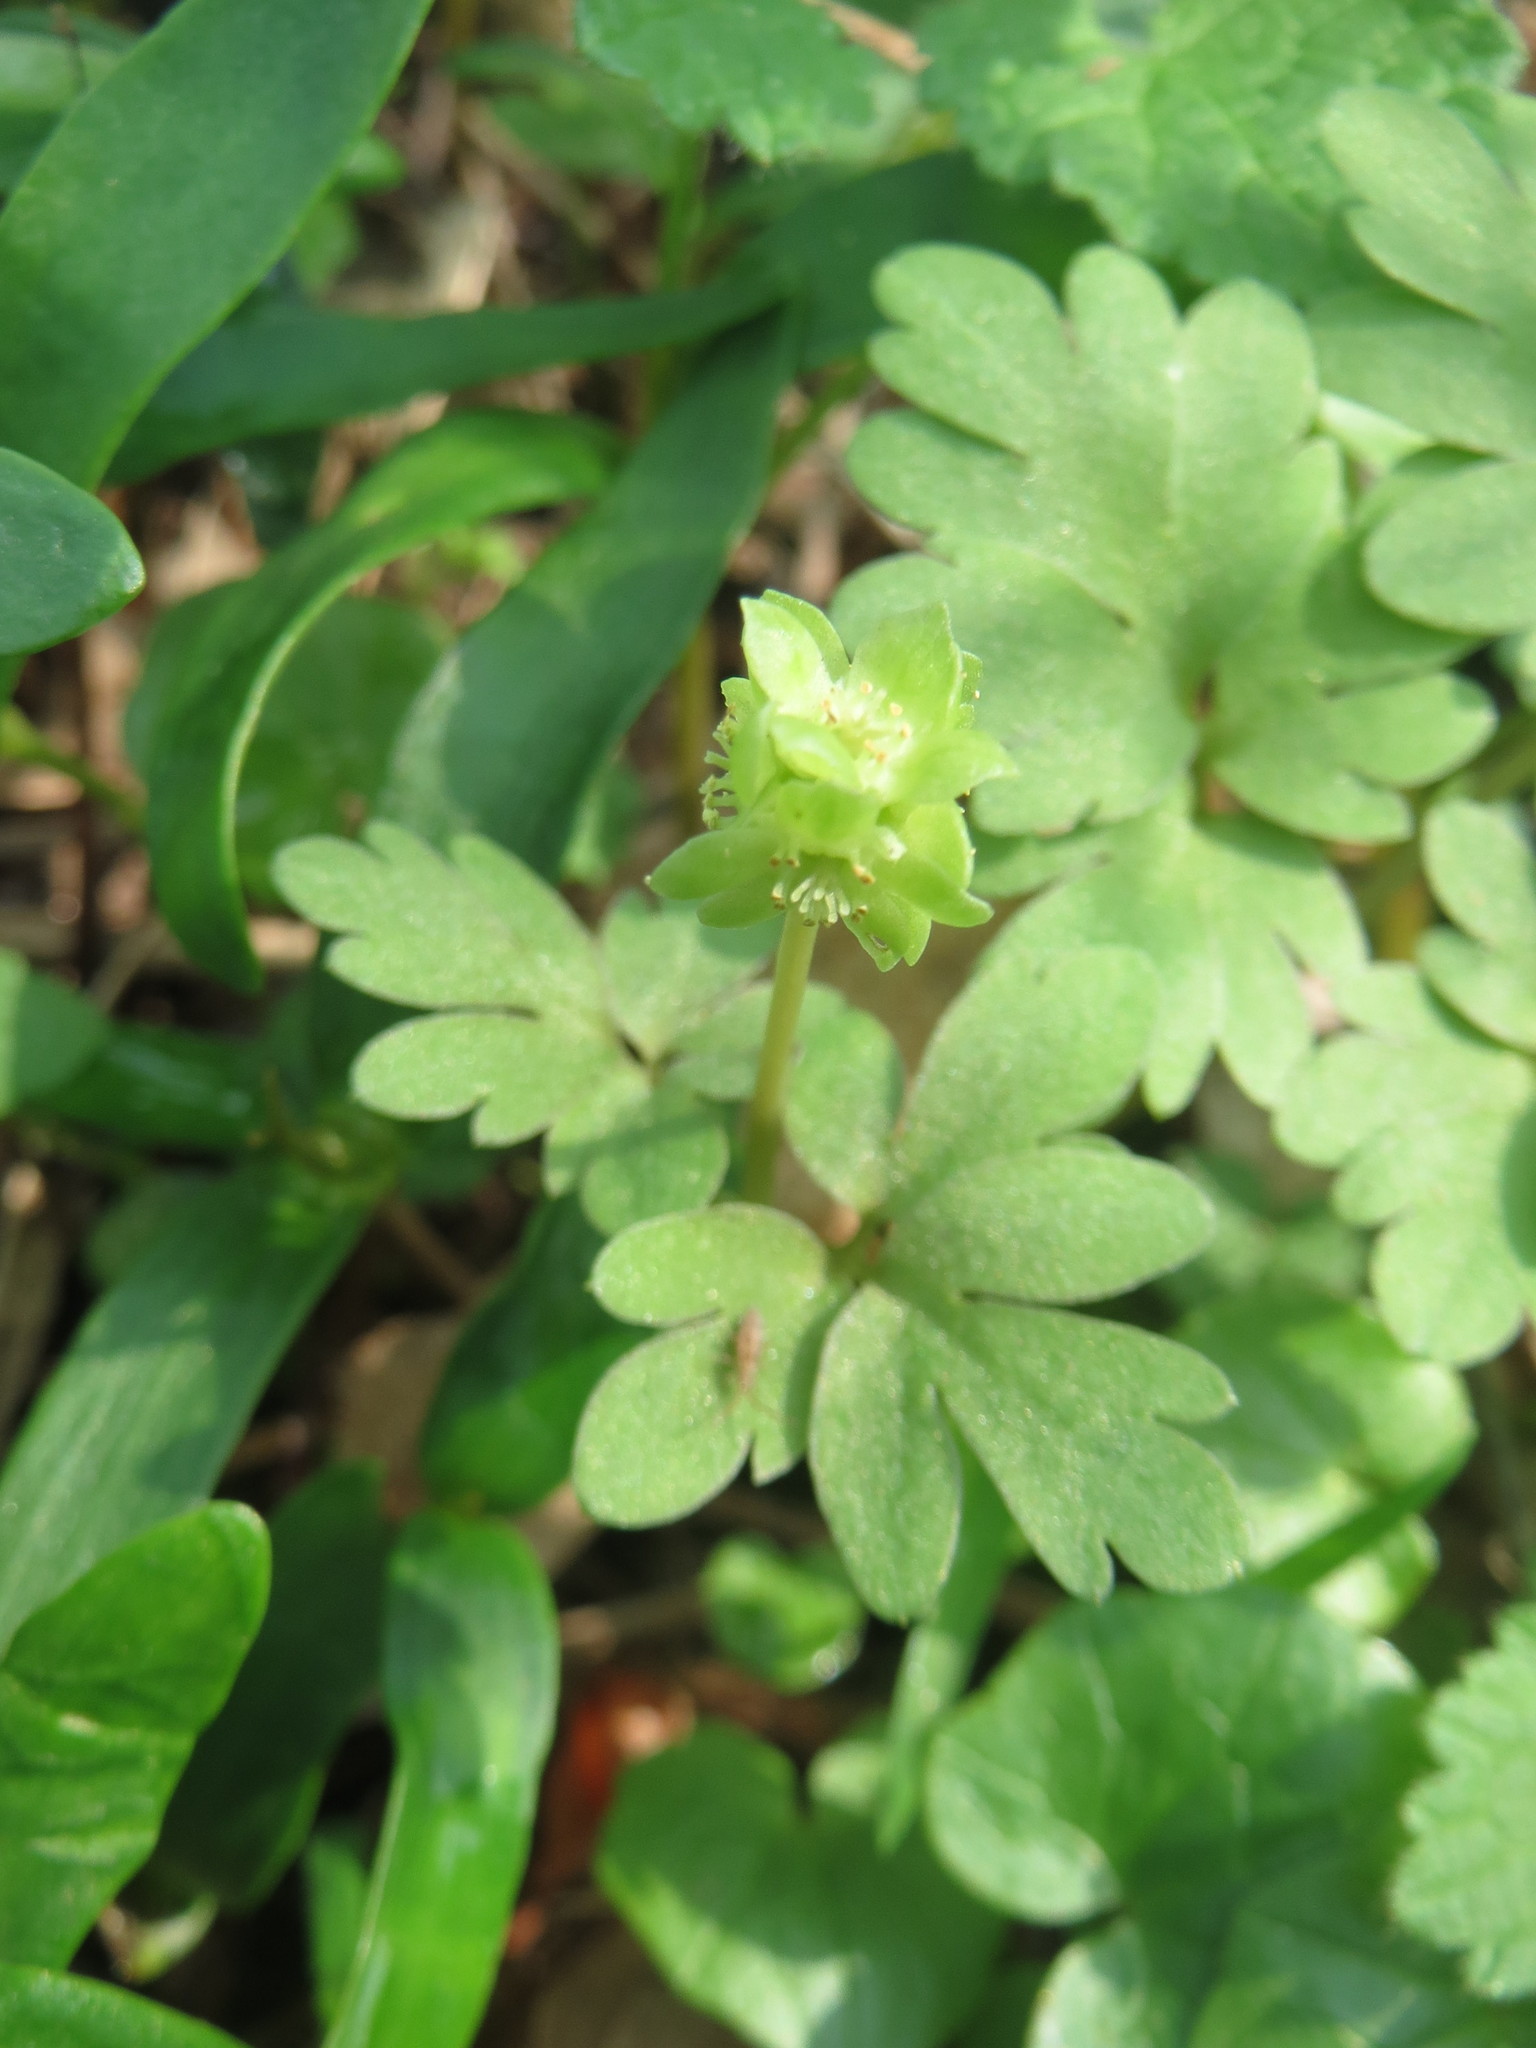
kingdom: Plantae
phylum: Tracheophyta
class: Magnoliopsida
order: Dipsacales
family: Viburnaceae
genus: Adoxa
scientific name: Adoxa moschatellina
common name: Moschatel
